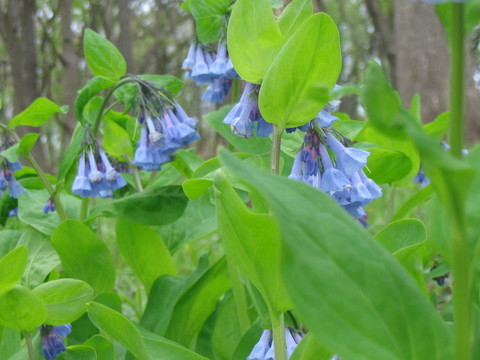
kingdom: Plantae
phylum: Tracheophyta
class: Magnoliopsida
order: Boraginales
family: Boraginaceae
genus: Mertensia
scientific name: Mertensia virginica
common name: Virginia bluebells
